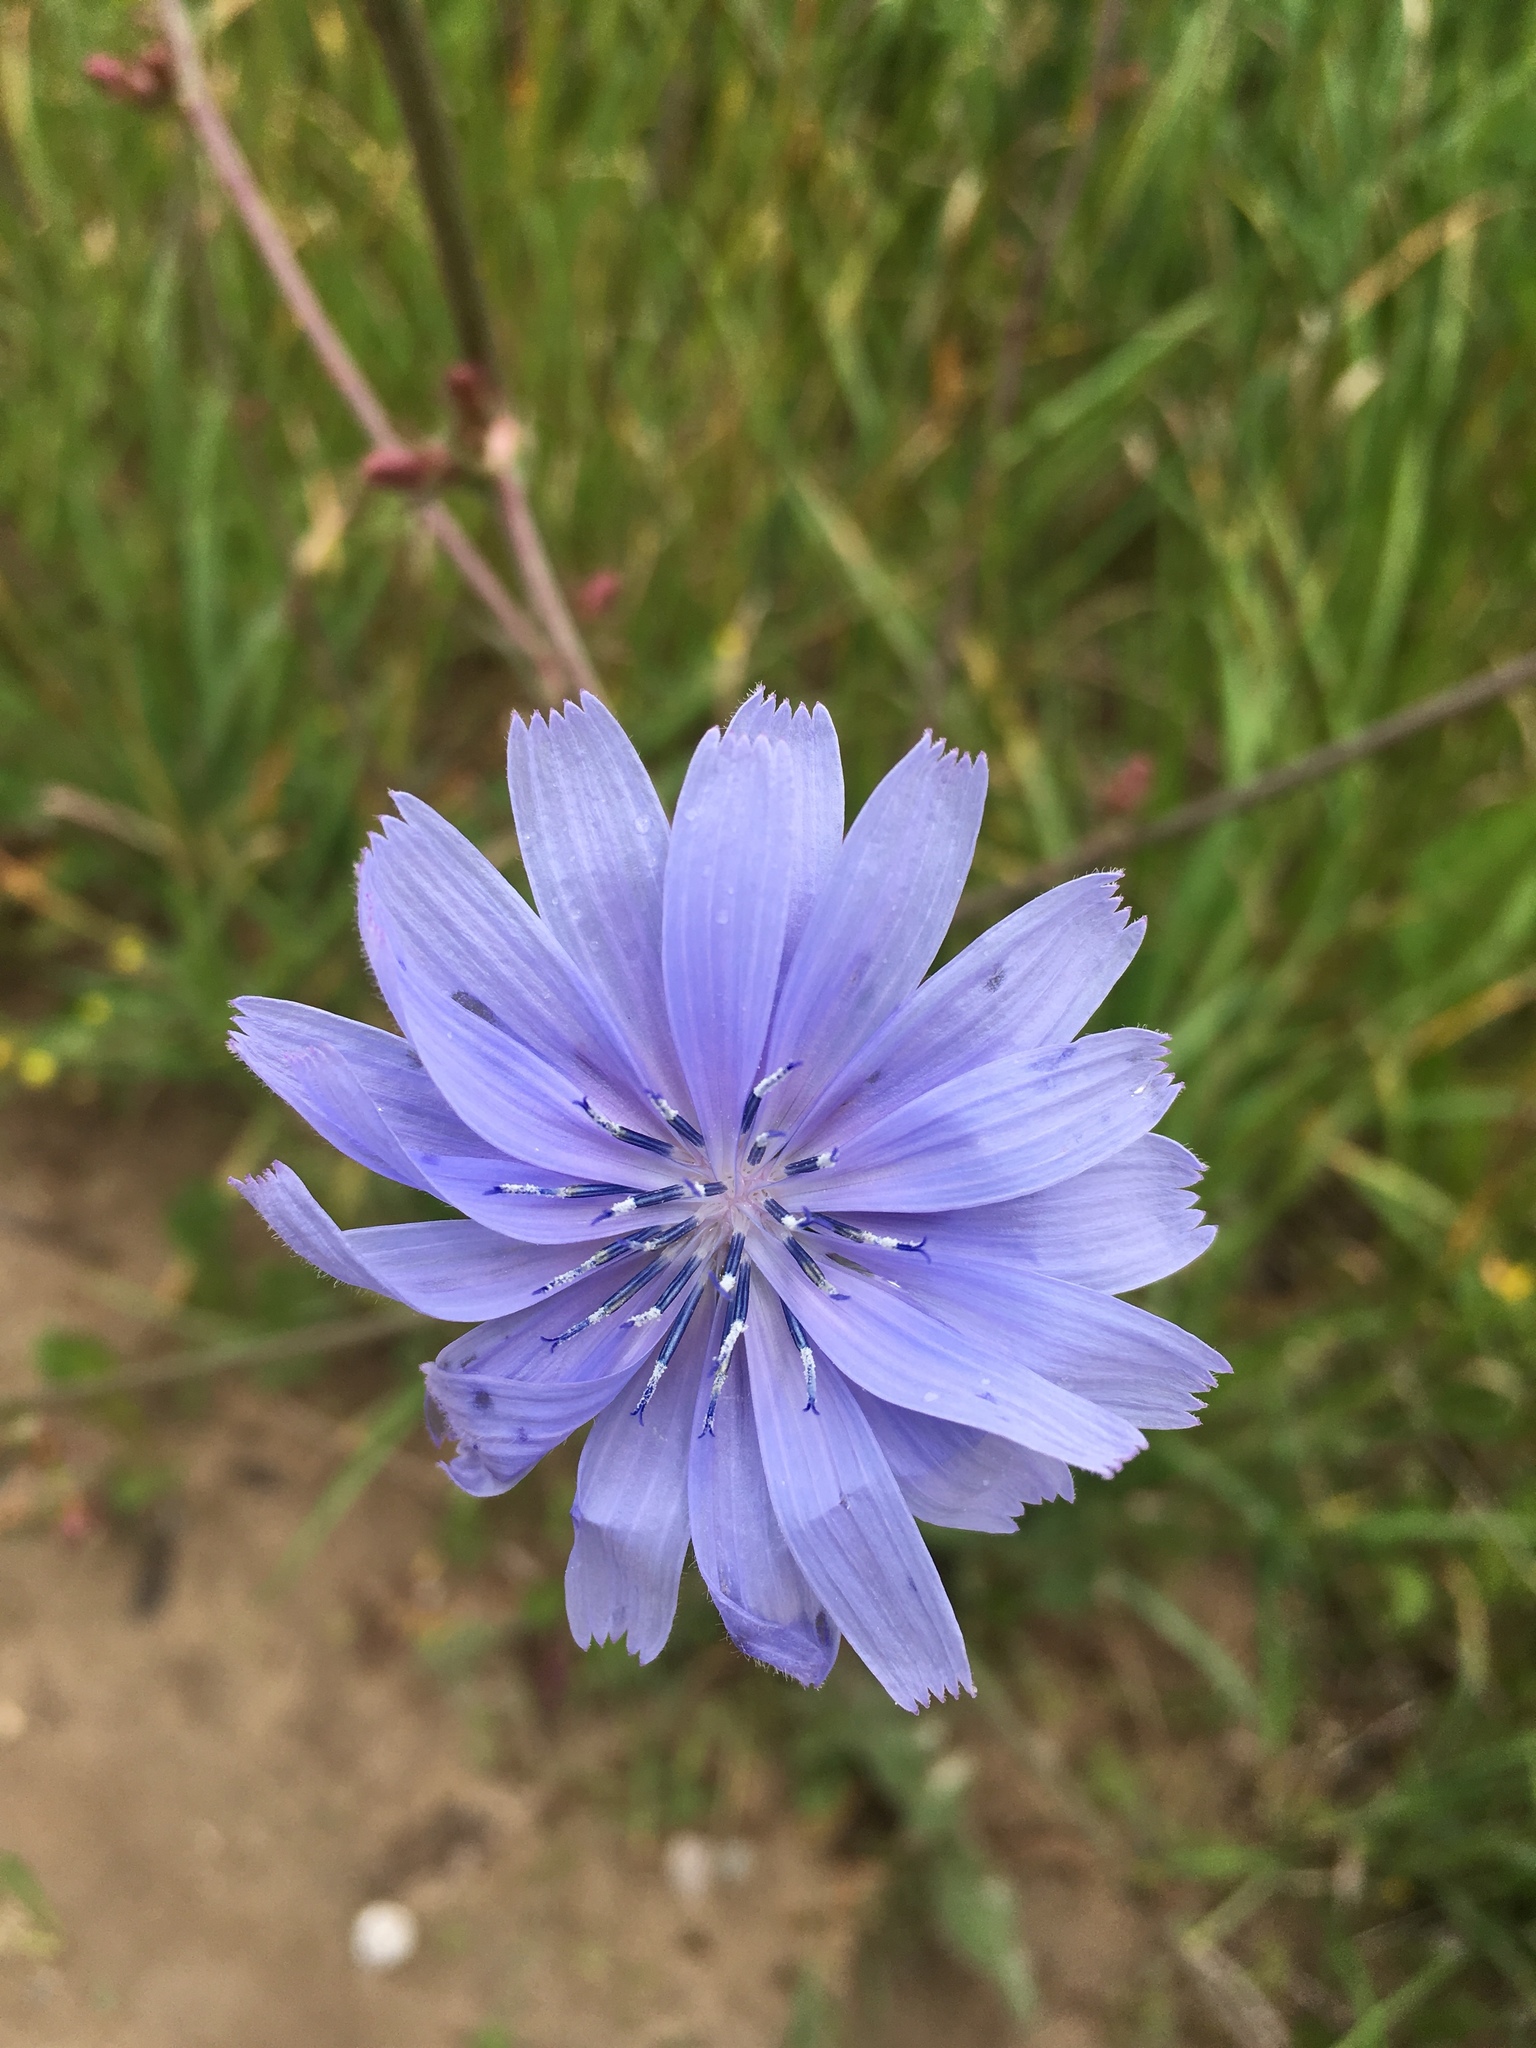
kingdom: Plantae
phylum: Tracheophyta
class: Magnoliopsida
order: Asterales
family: Asteraceae
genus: Cichorium
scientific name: Cichorium intybus
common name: Chicory
